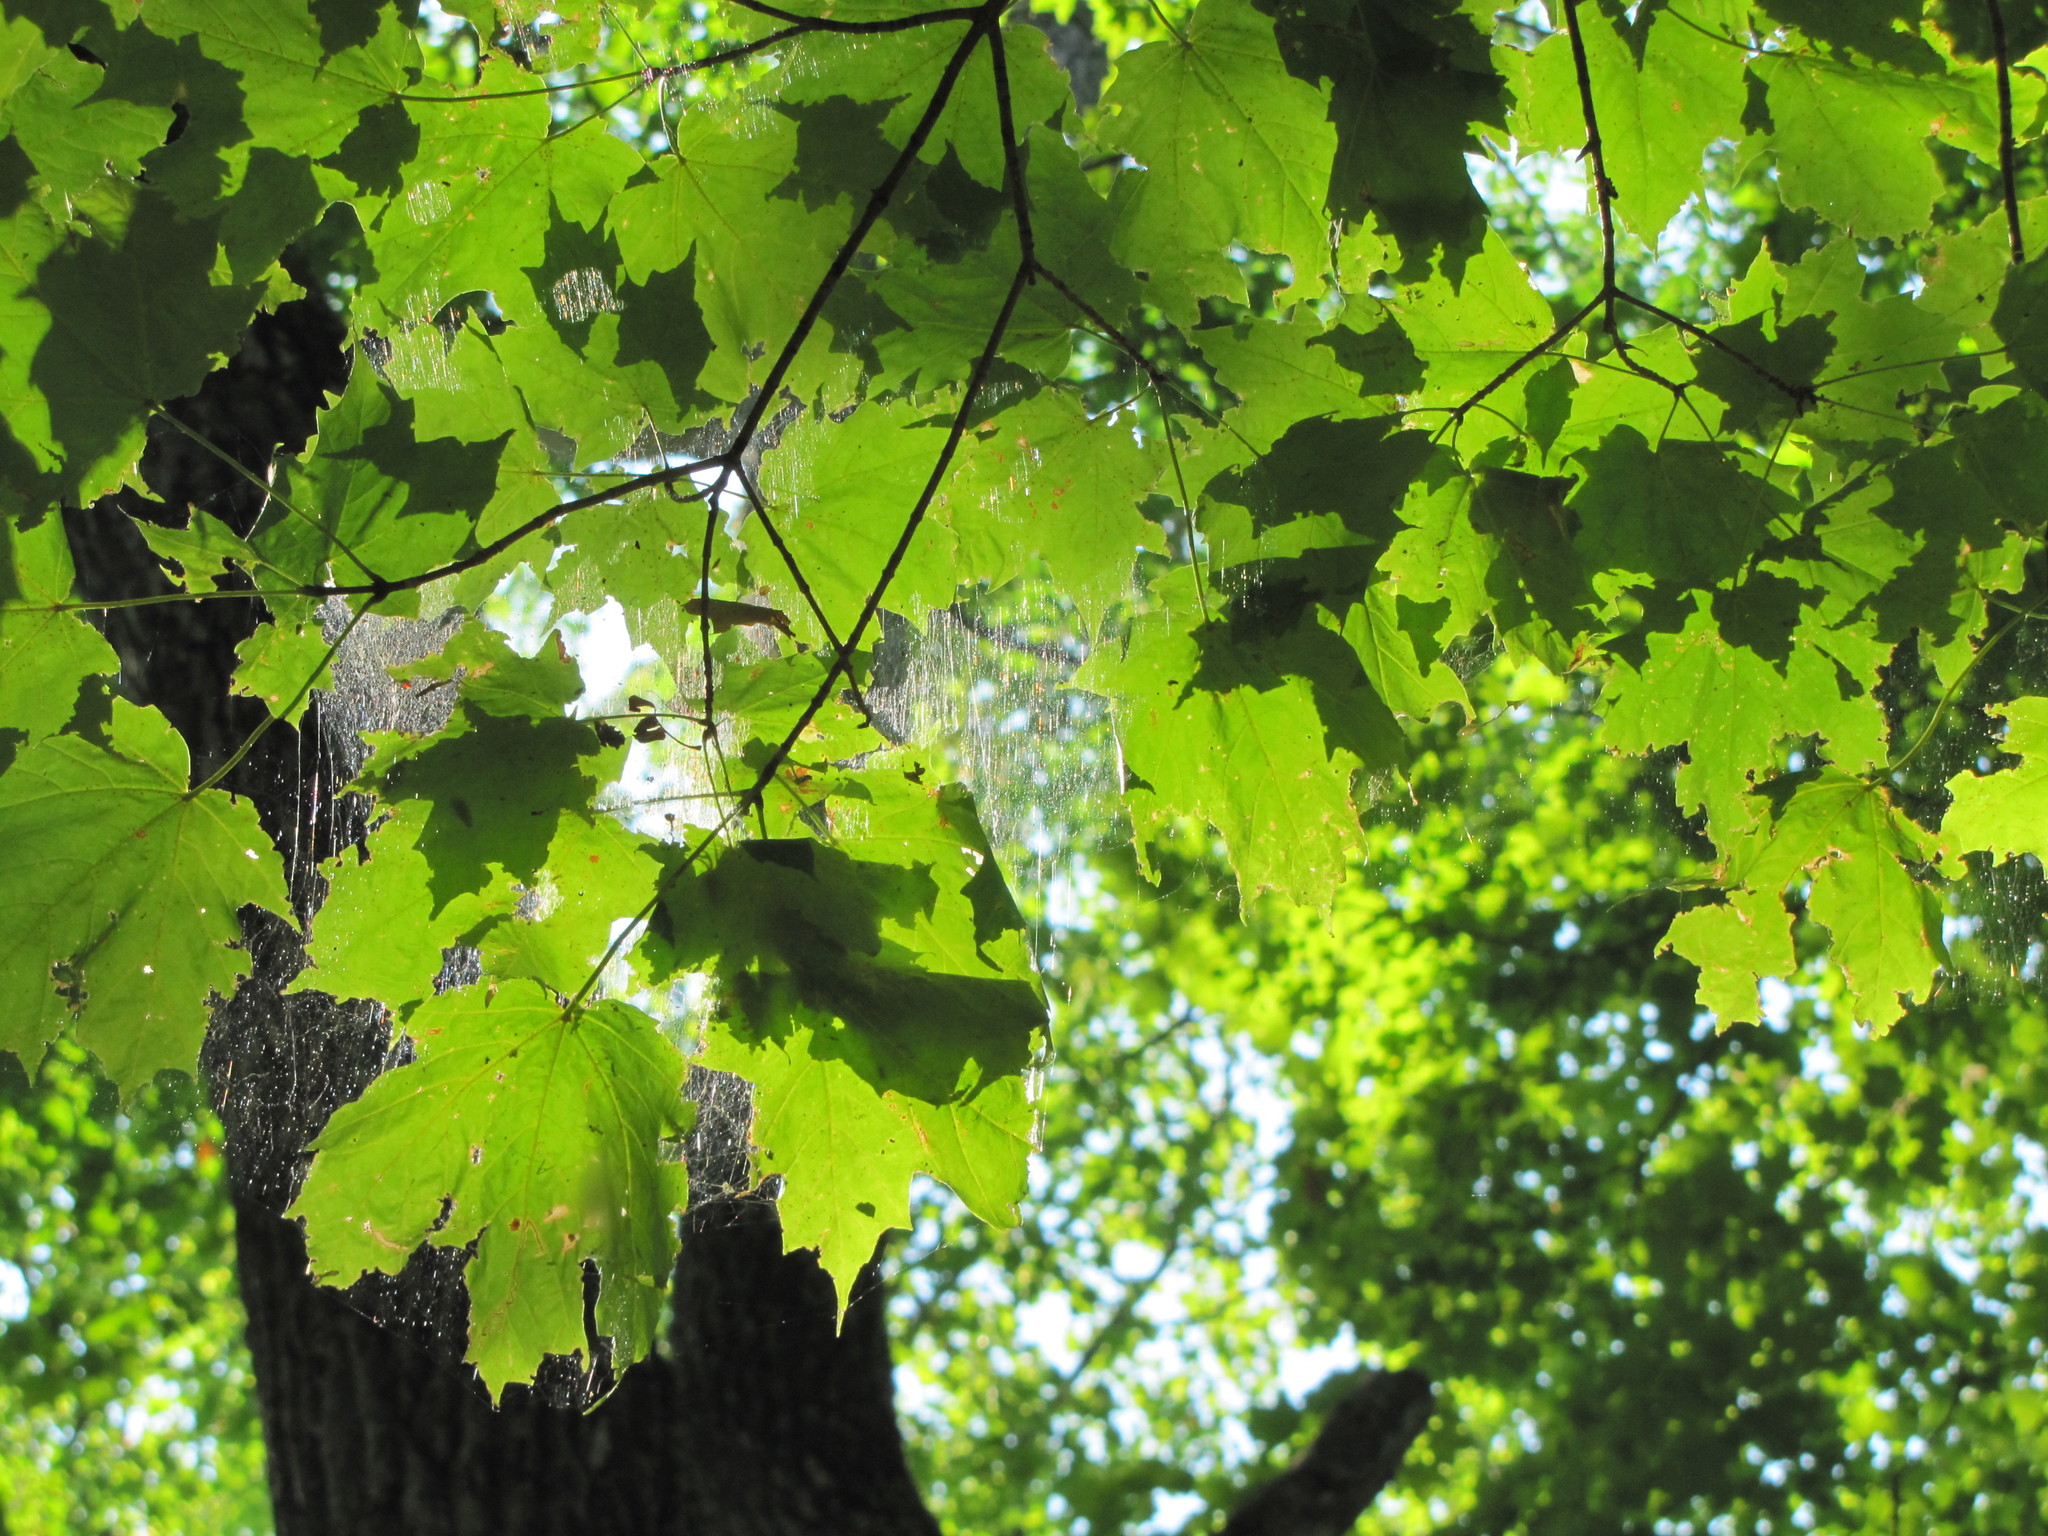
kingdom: Plantae
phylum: Tracheophyta
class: Magnoliopsida
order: Sapindales
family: Sapindaceae
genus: Acer
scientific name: Acer saccharum
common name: Sugar maple
